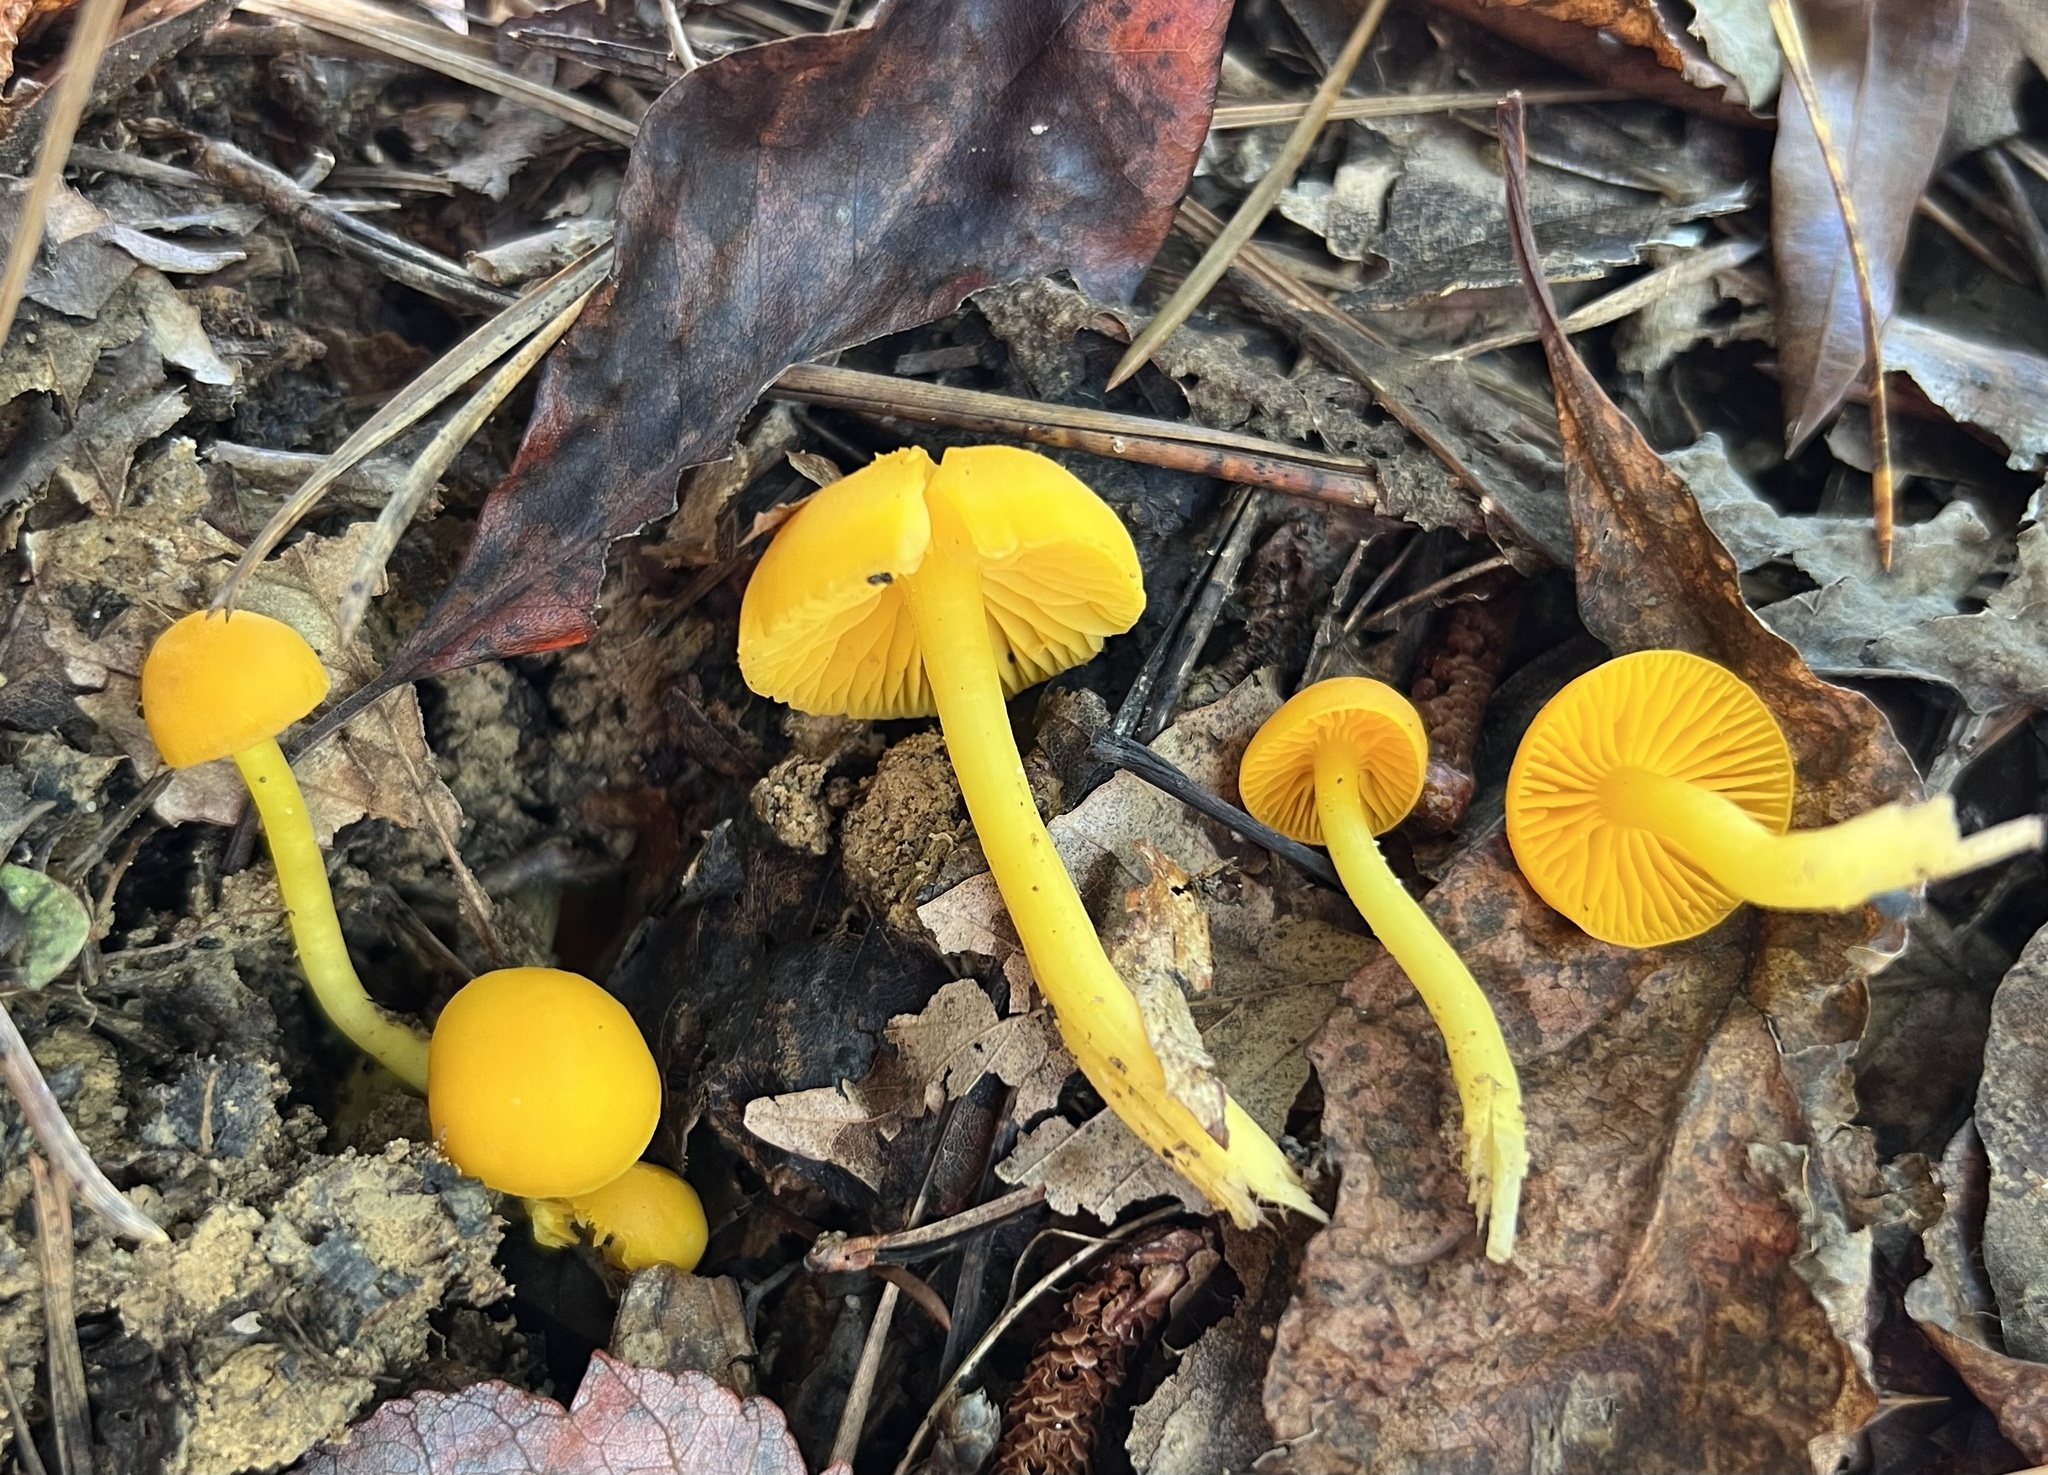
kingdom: Fungi
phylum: Basidiomycota
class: Agaricomycetes
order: Agaricales
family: Hygrophoraceae
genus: Humidicutis
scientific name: Humidicutis marginata
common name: Orange gilled waxcap
